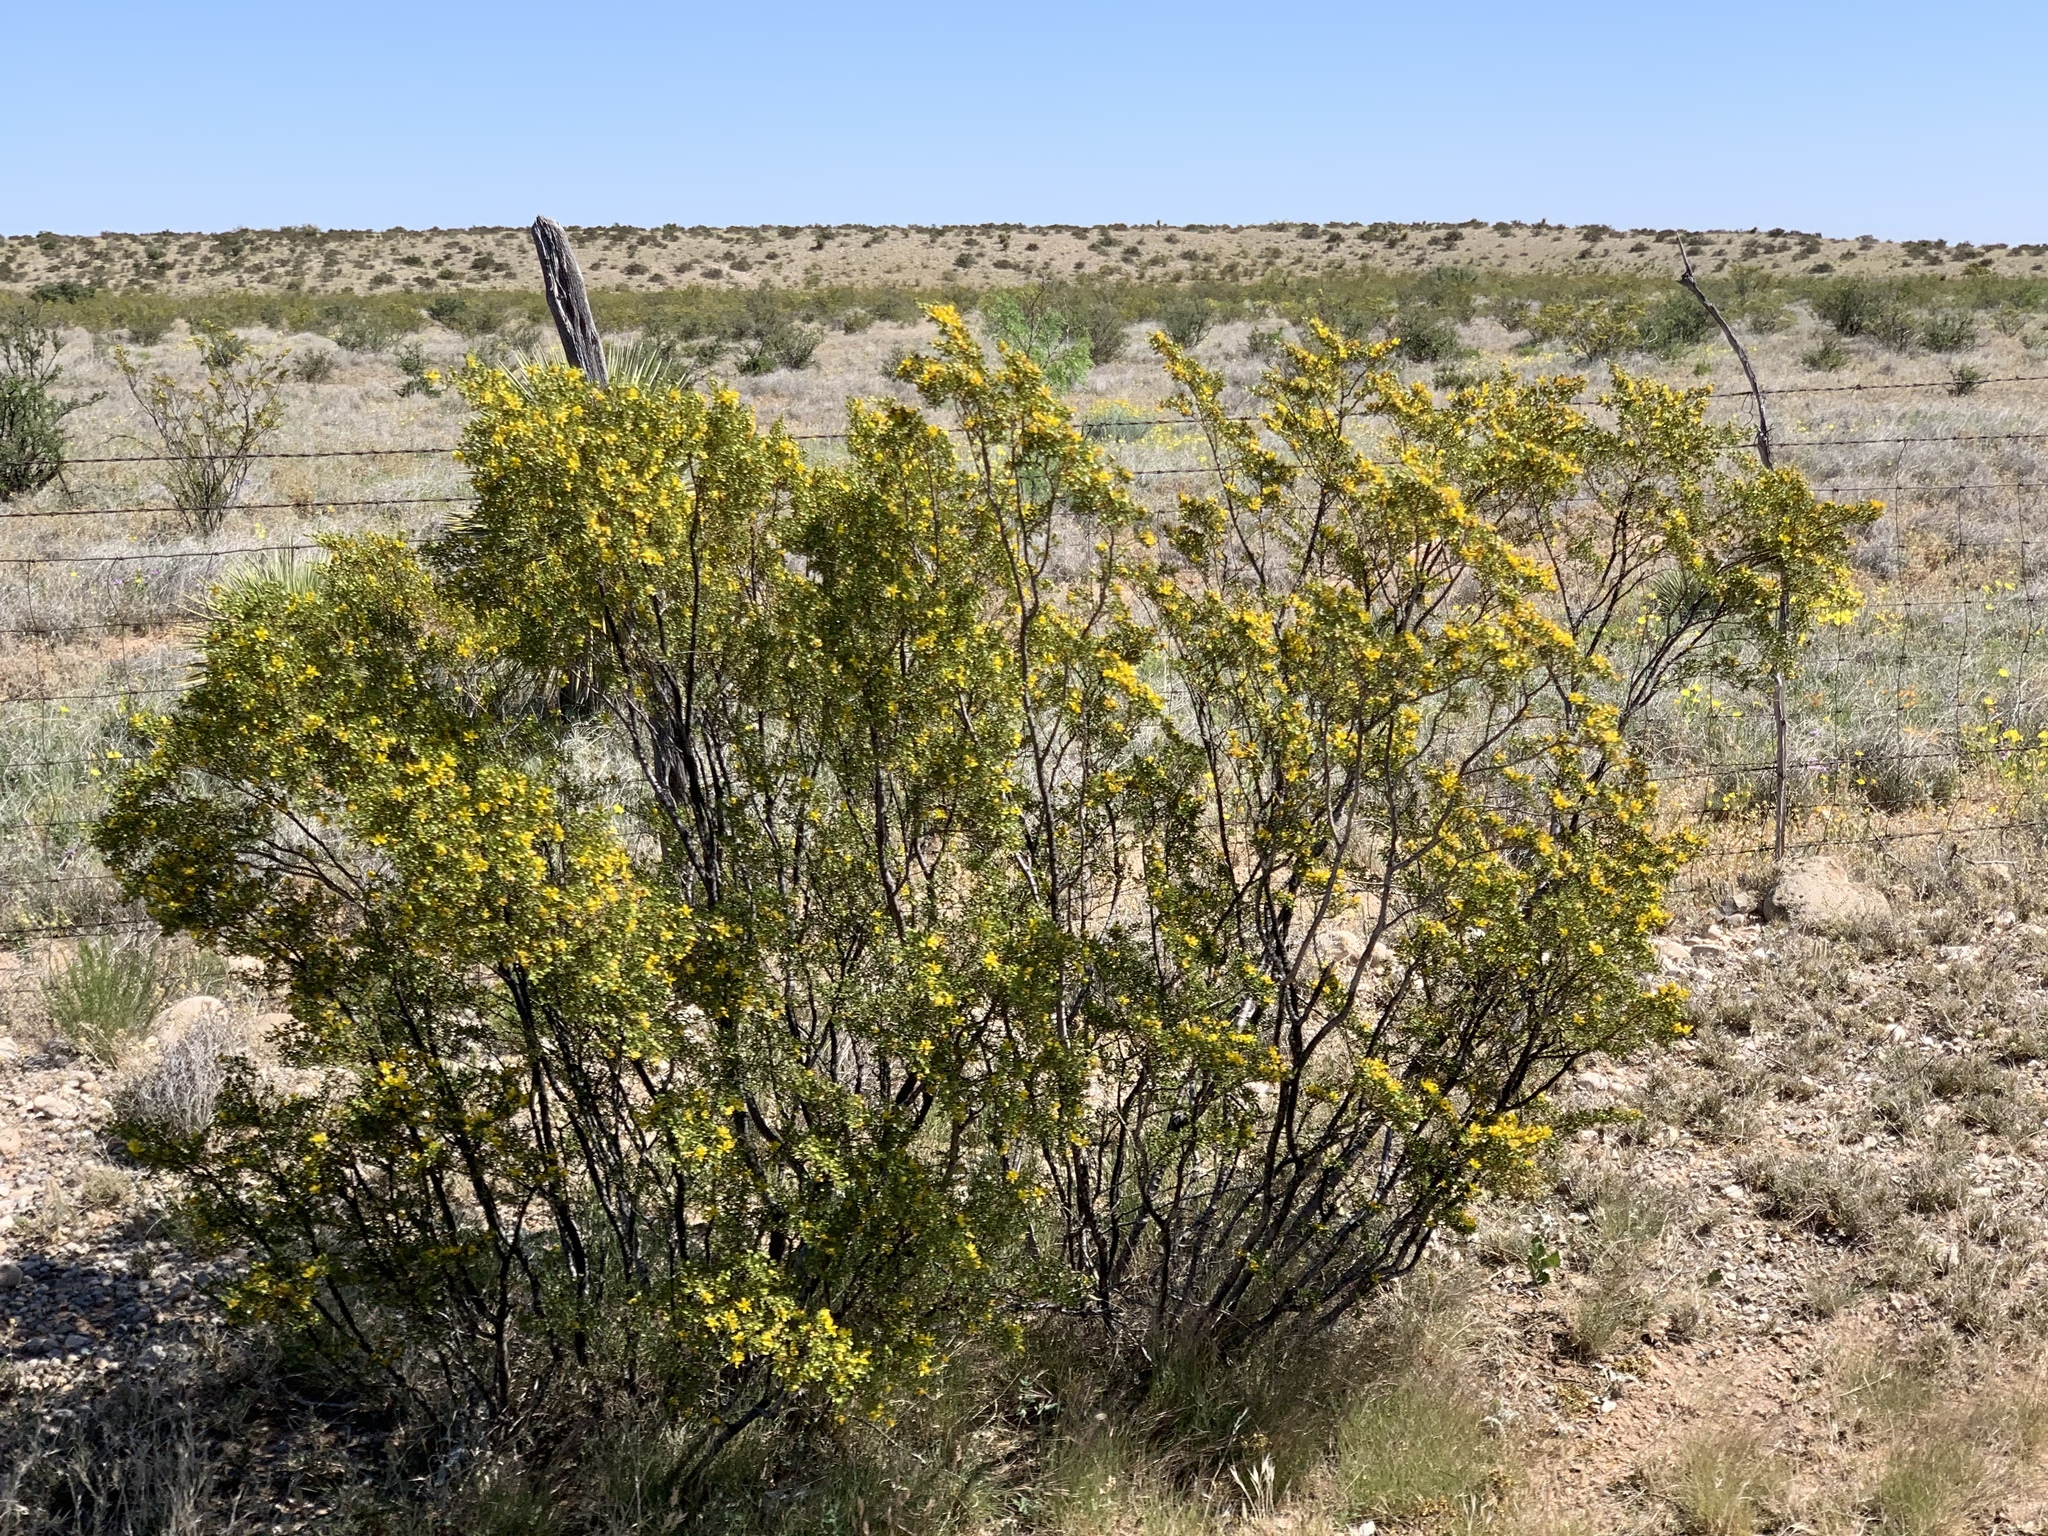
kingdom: Plantae
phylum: Tracheophyta
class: Magnoliopsida
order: Zygophyllales
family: Zygophyllaceae
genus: Larrea
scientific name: Larrea tridentata
